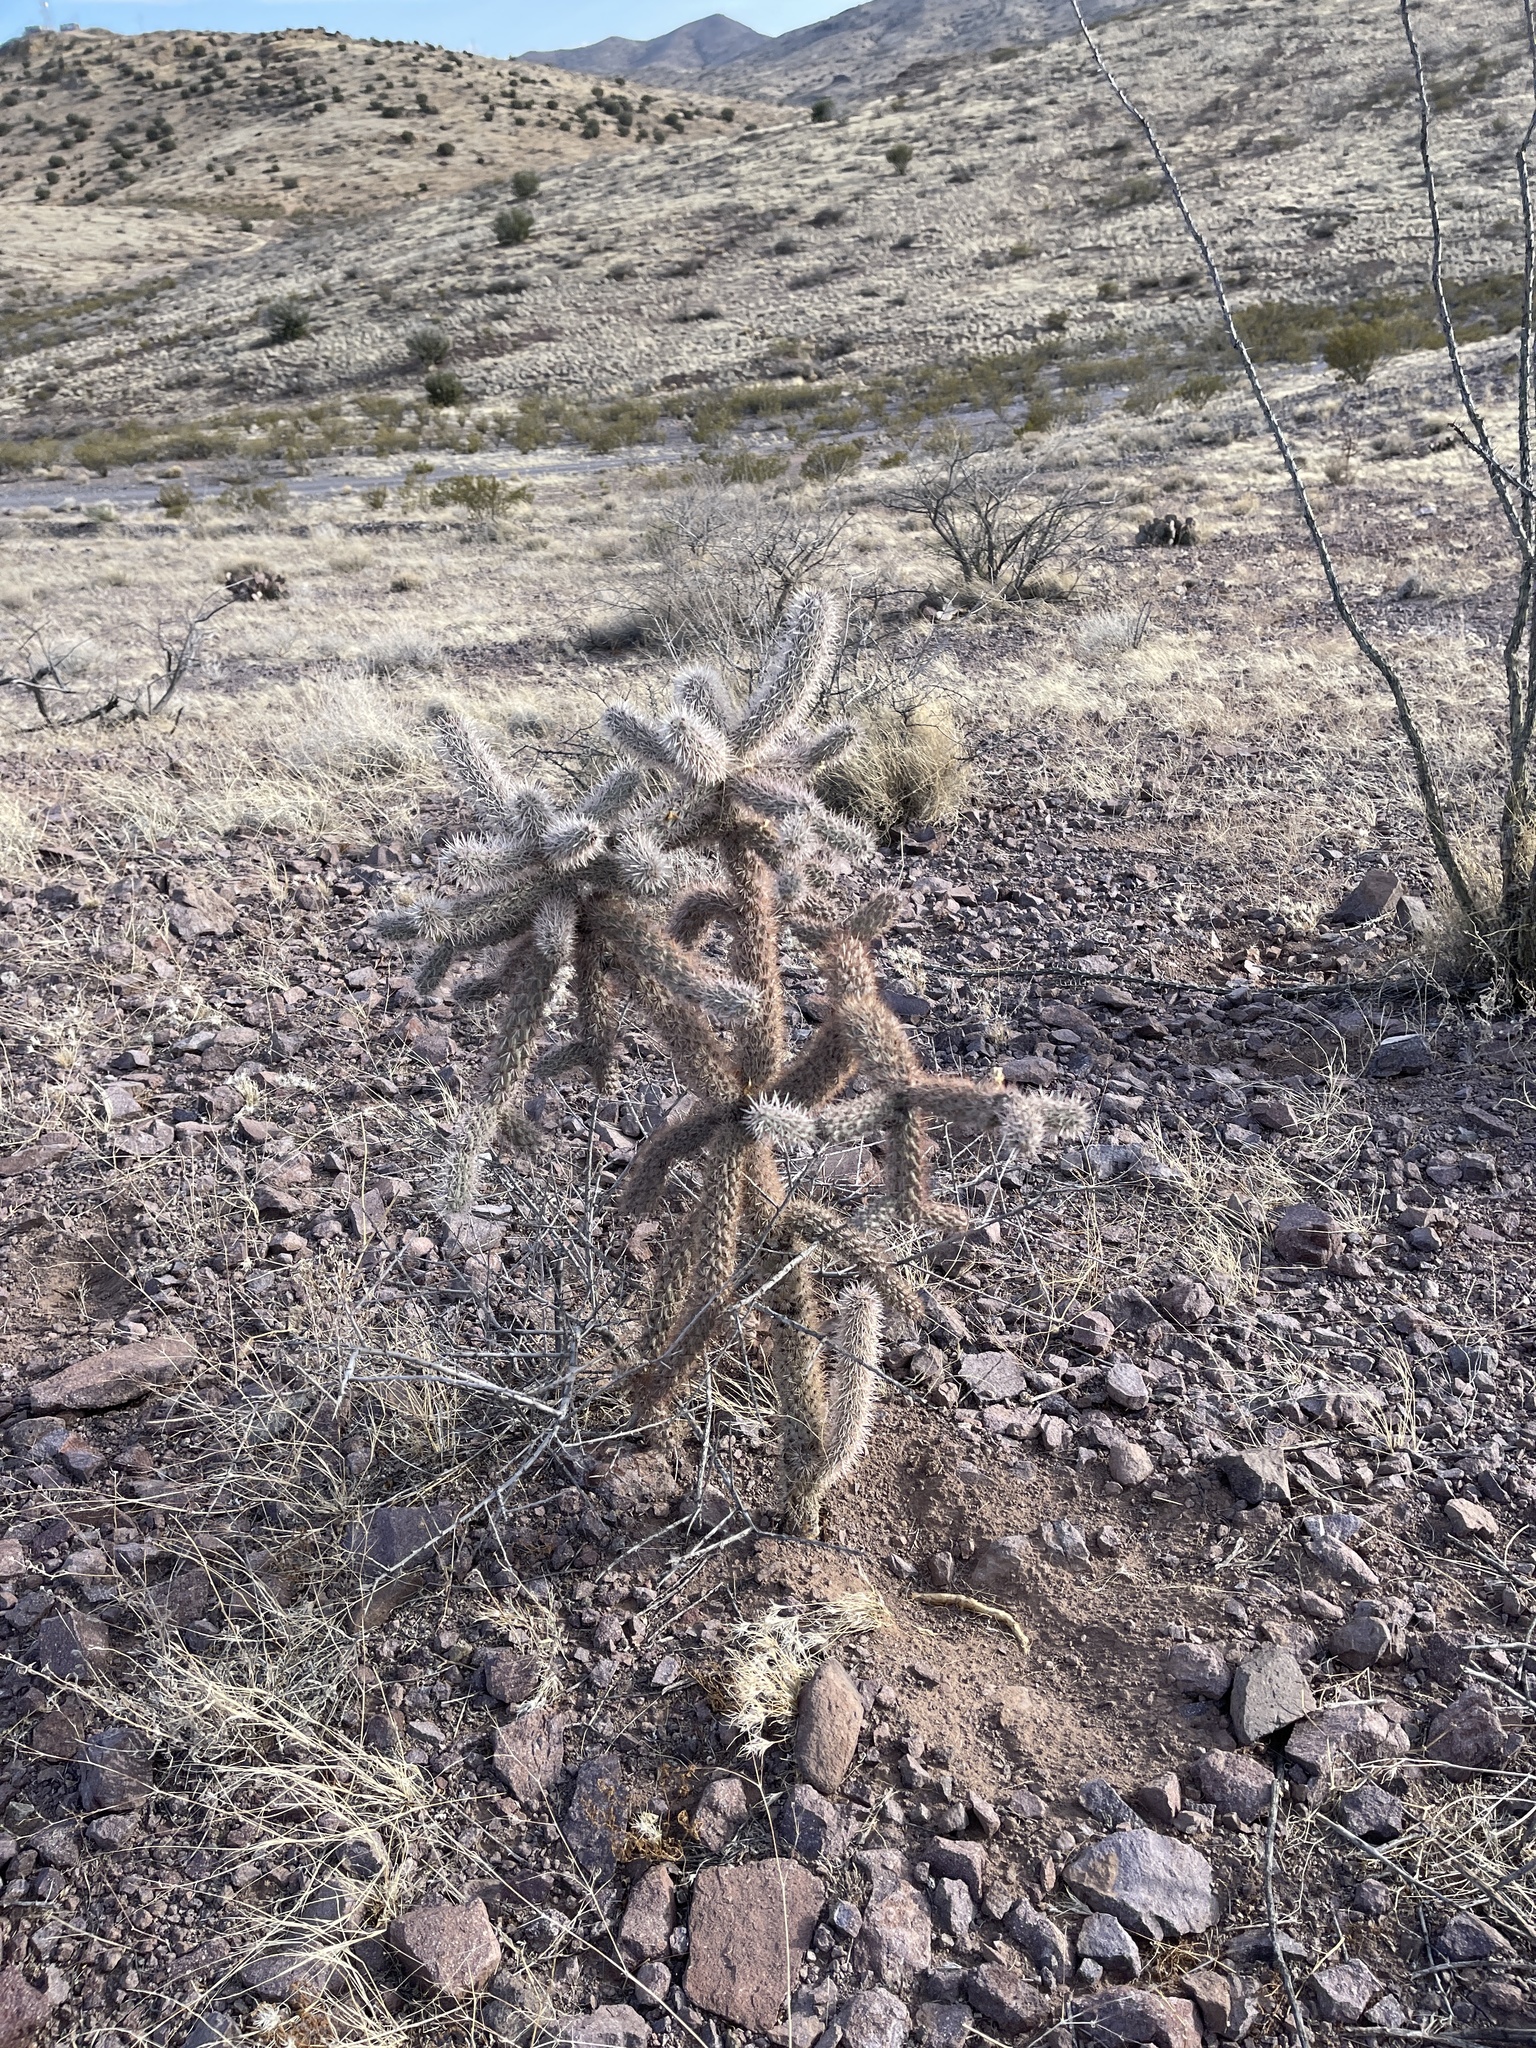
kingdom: Plantae
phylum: Tracheophyta
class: Magnoliopsida
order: Caryophyllales
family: Cactaceae
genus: Cylindropuntia
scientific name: Cylindropuntia imbricata
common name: Candelabrum cactus
